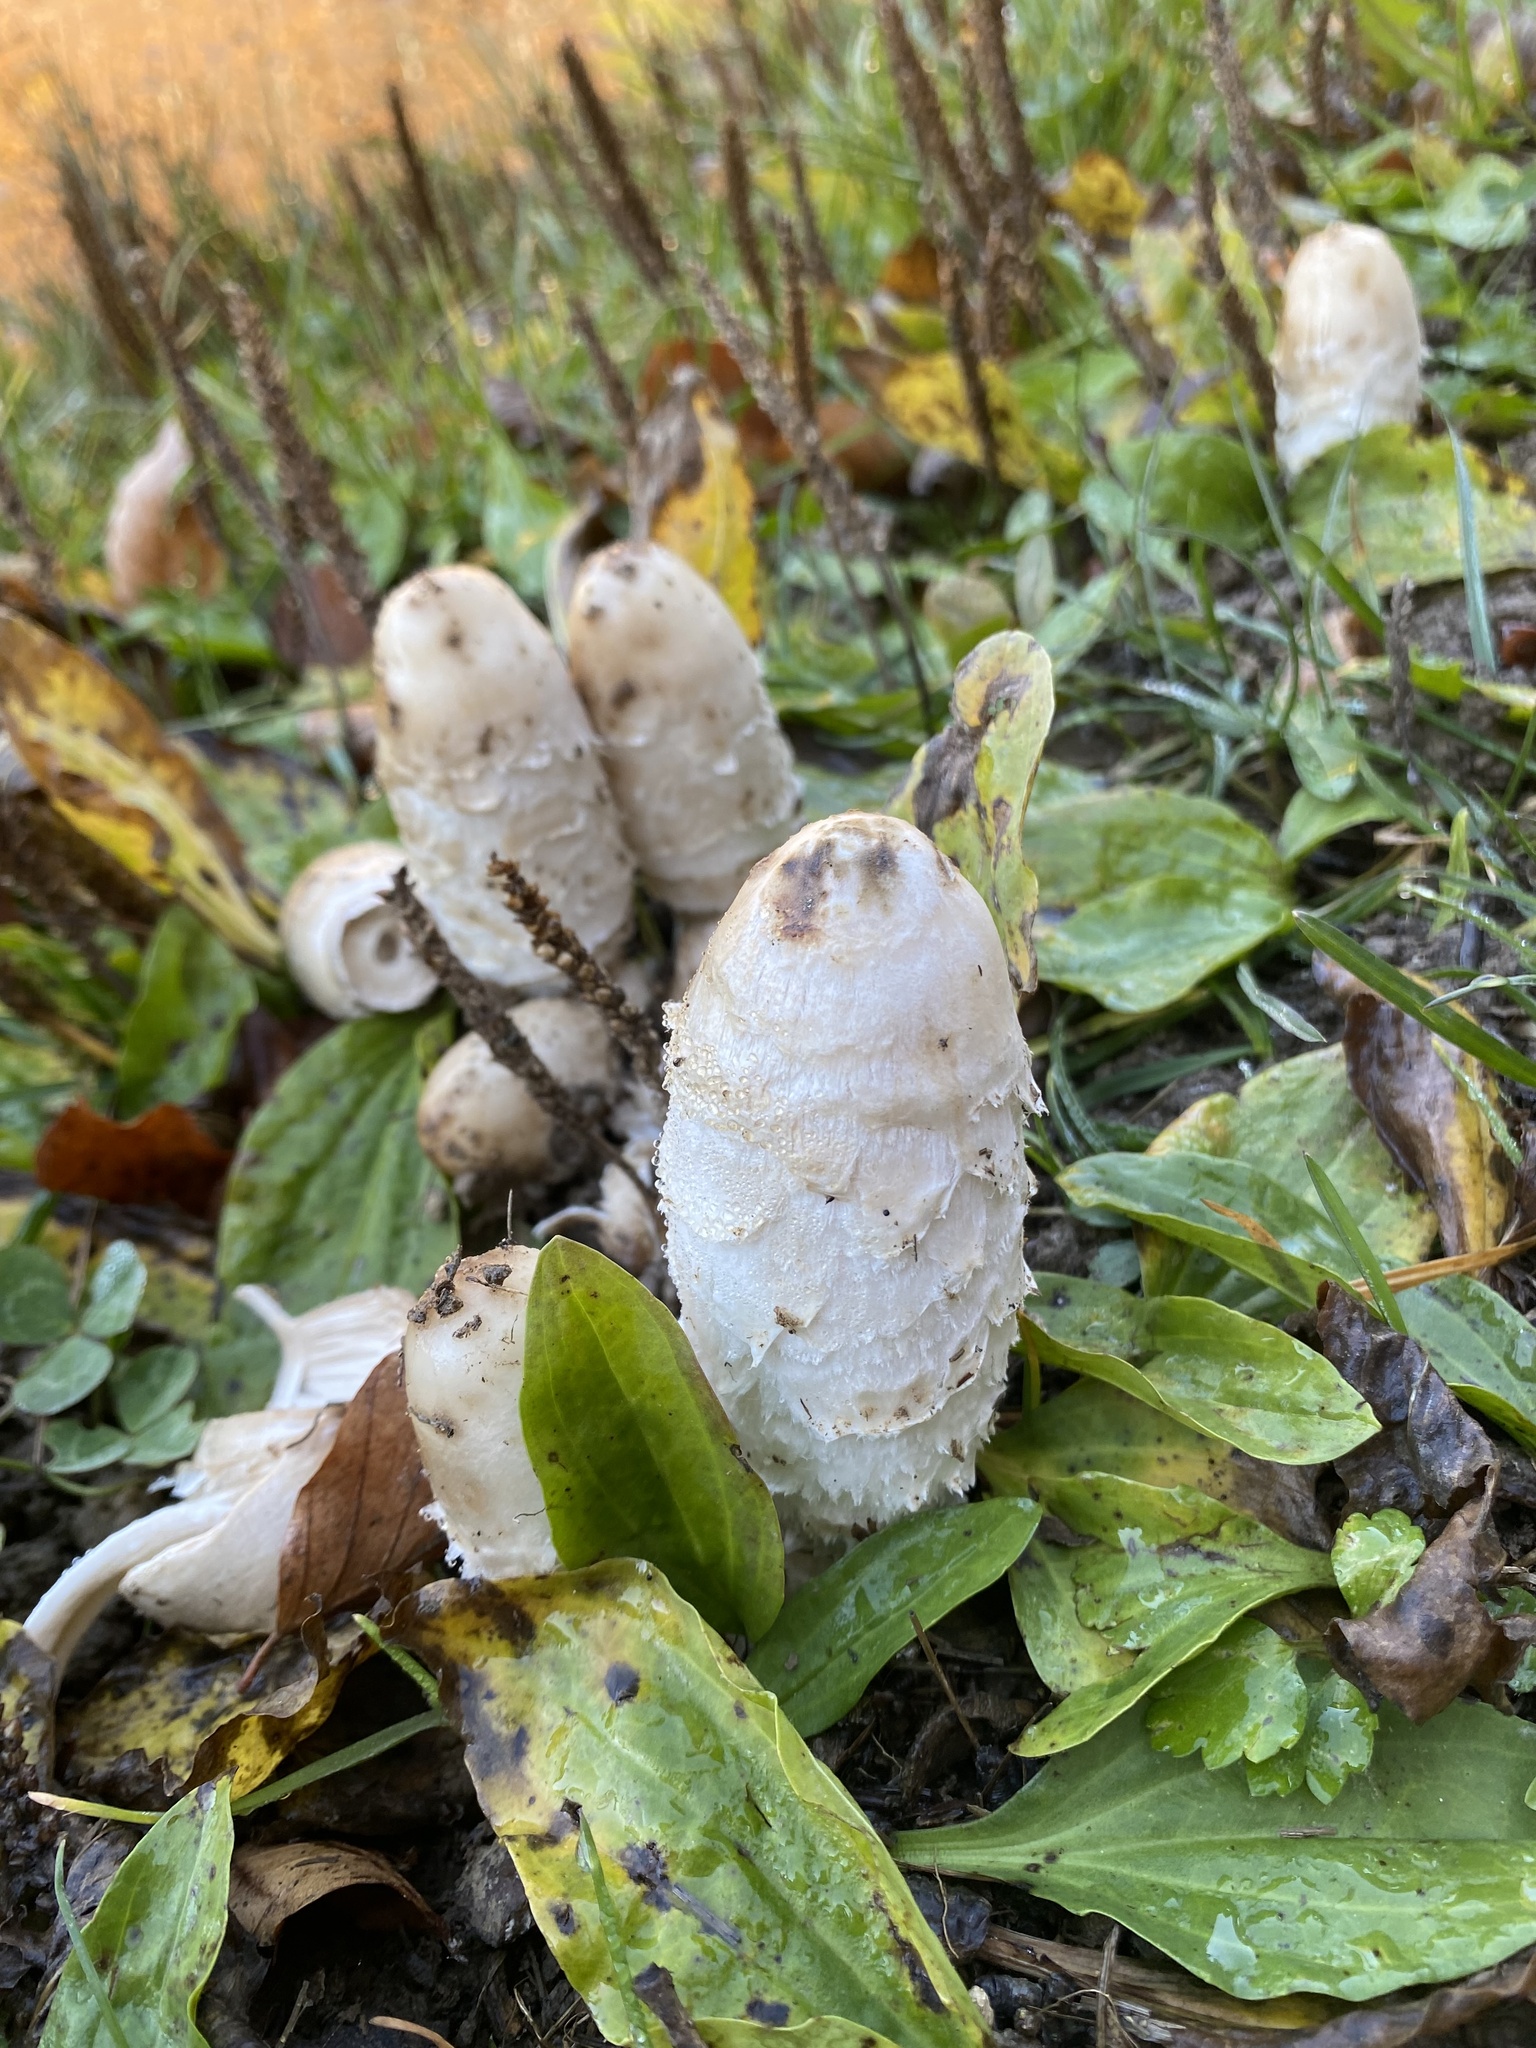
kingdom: Fungi
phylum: Basidiomycota
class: Agaricomycetes
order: Agaricales
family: Agaricaceae
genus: Coprinus
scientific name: Coprinus comatus
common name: Lawyer's wig
